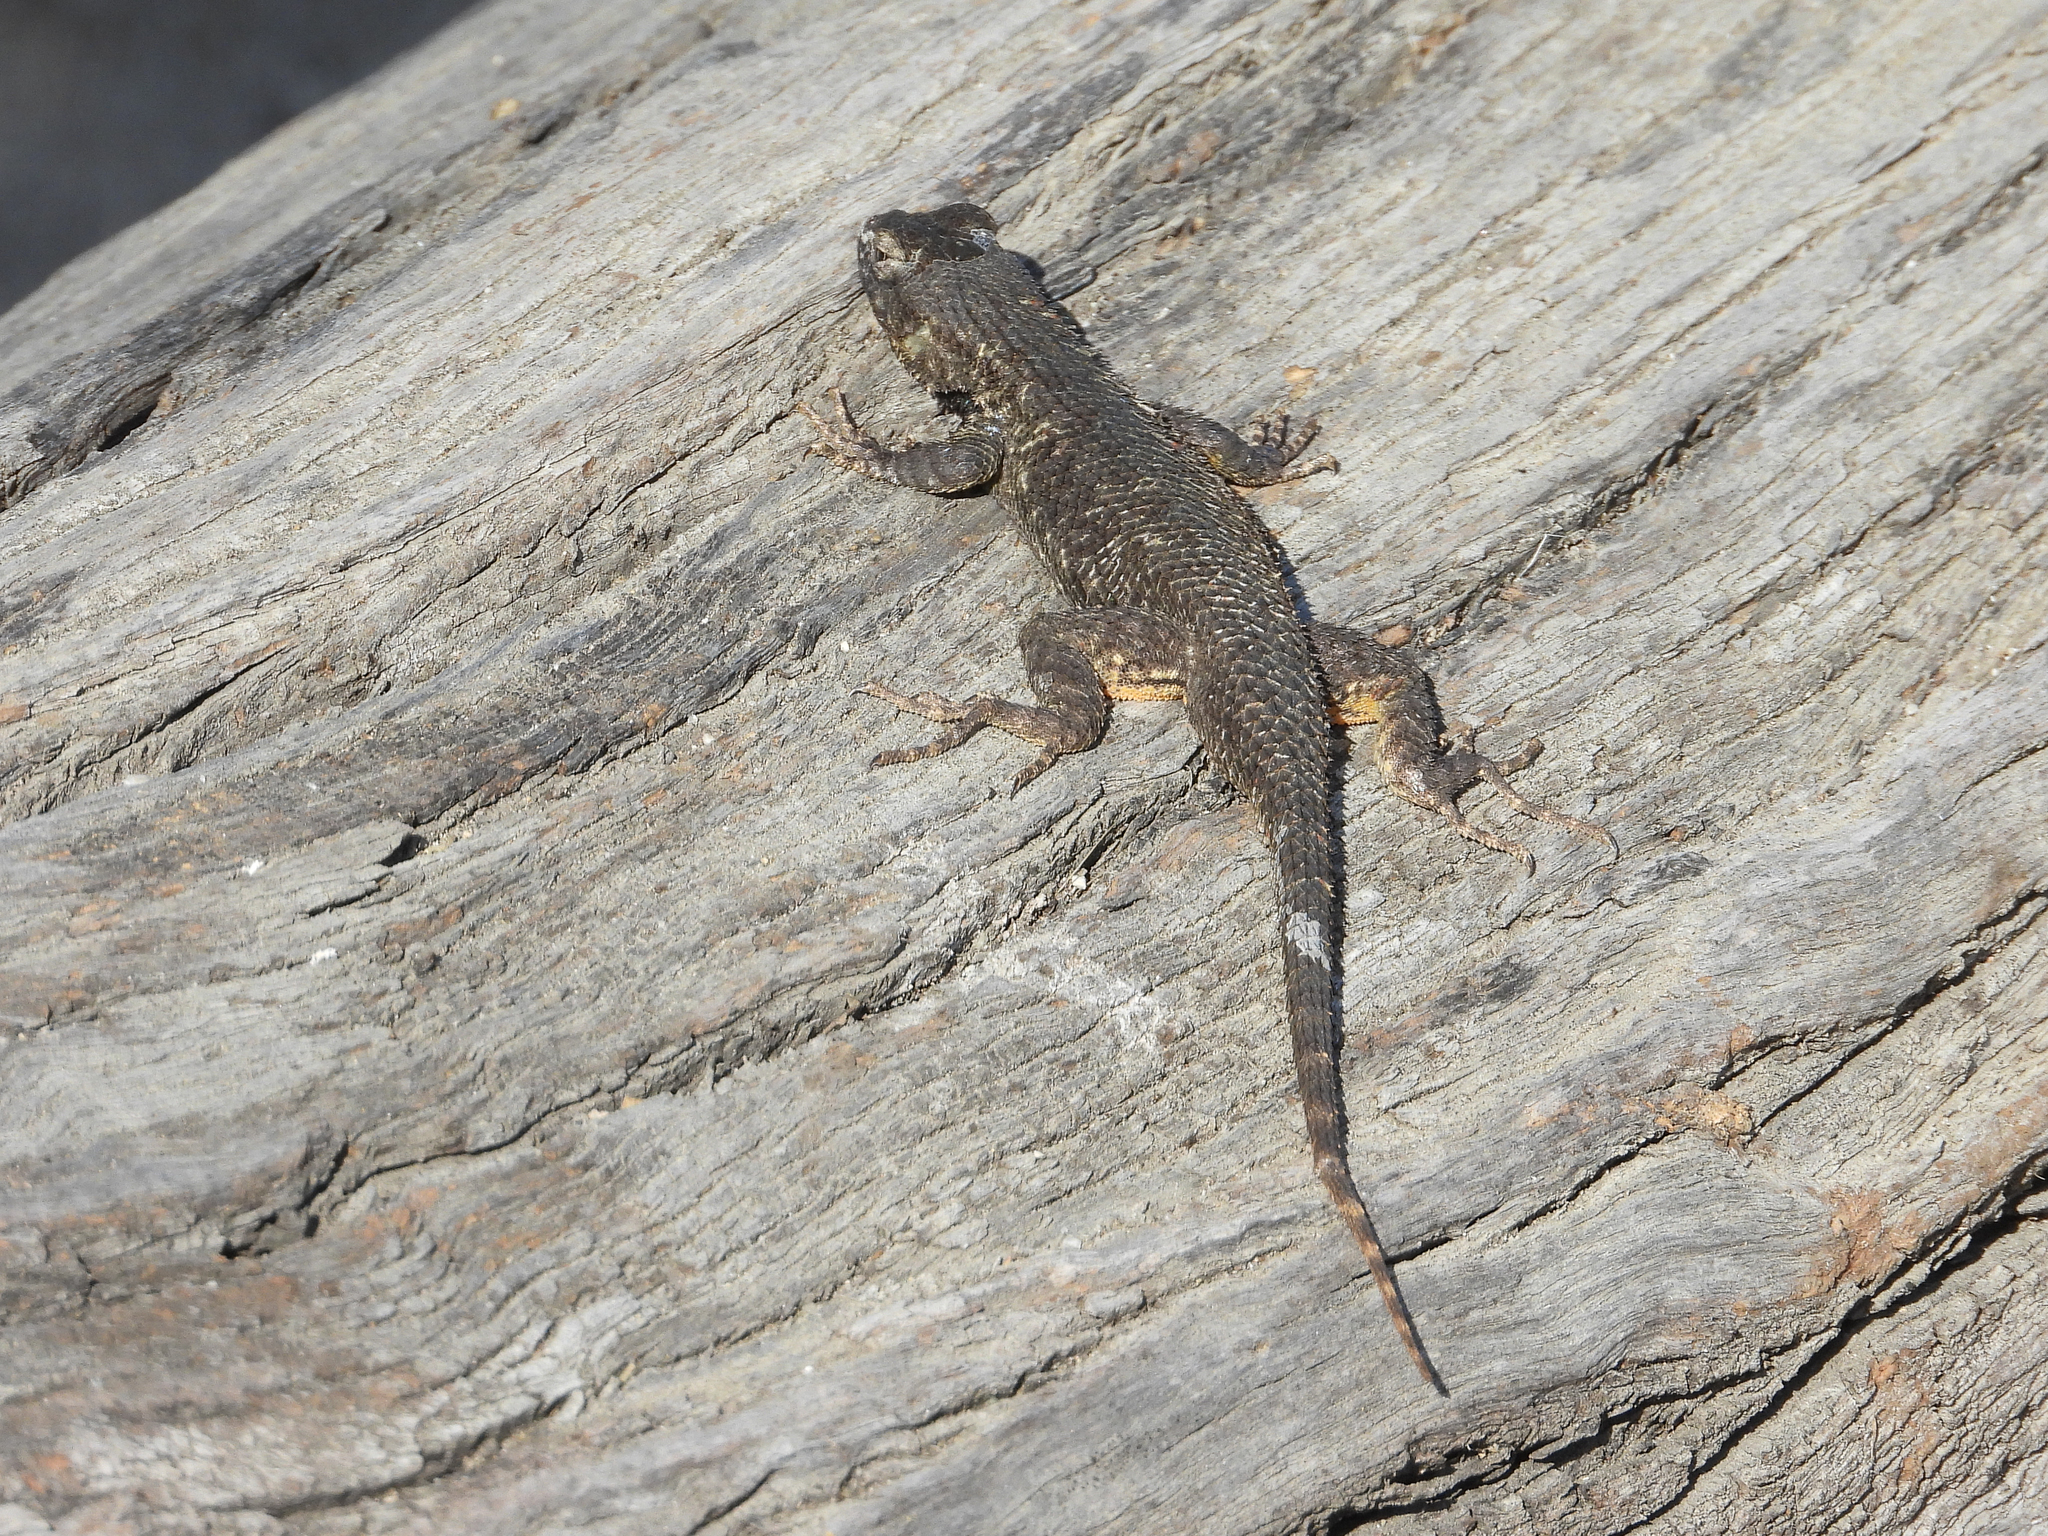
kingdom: Animalia
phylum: Chordata
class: Squamata
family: Phrynosomatidae
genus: Sceloporus
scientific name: Sceloporus occidentalis
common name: Western fence lizard
